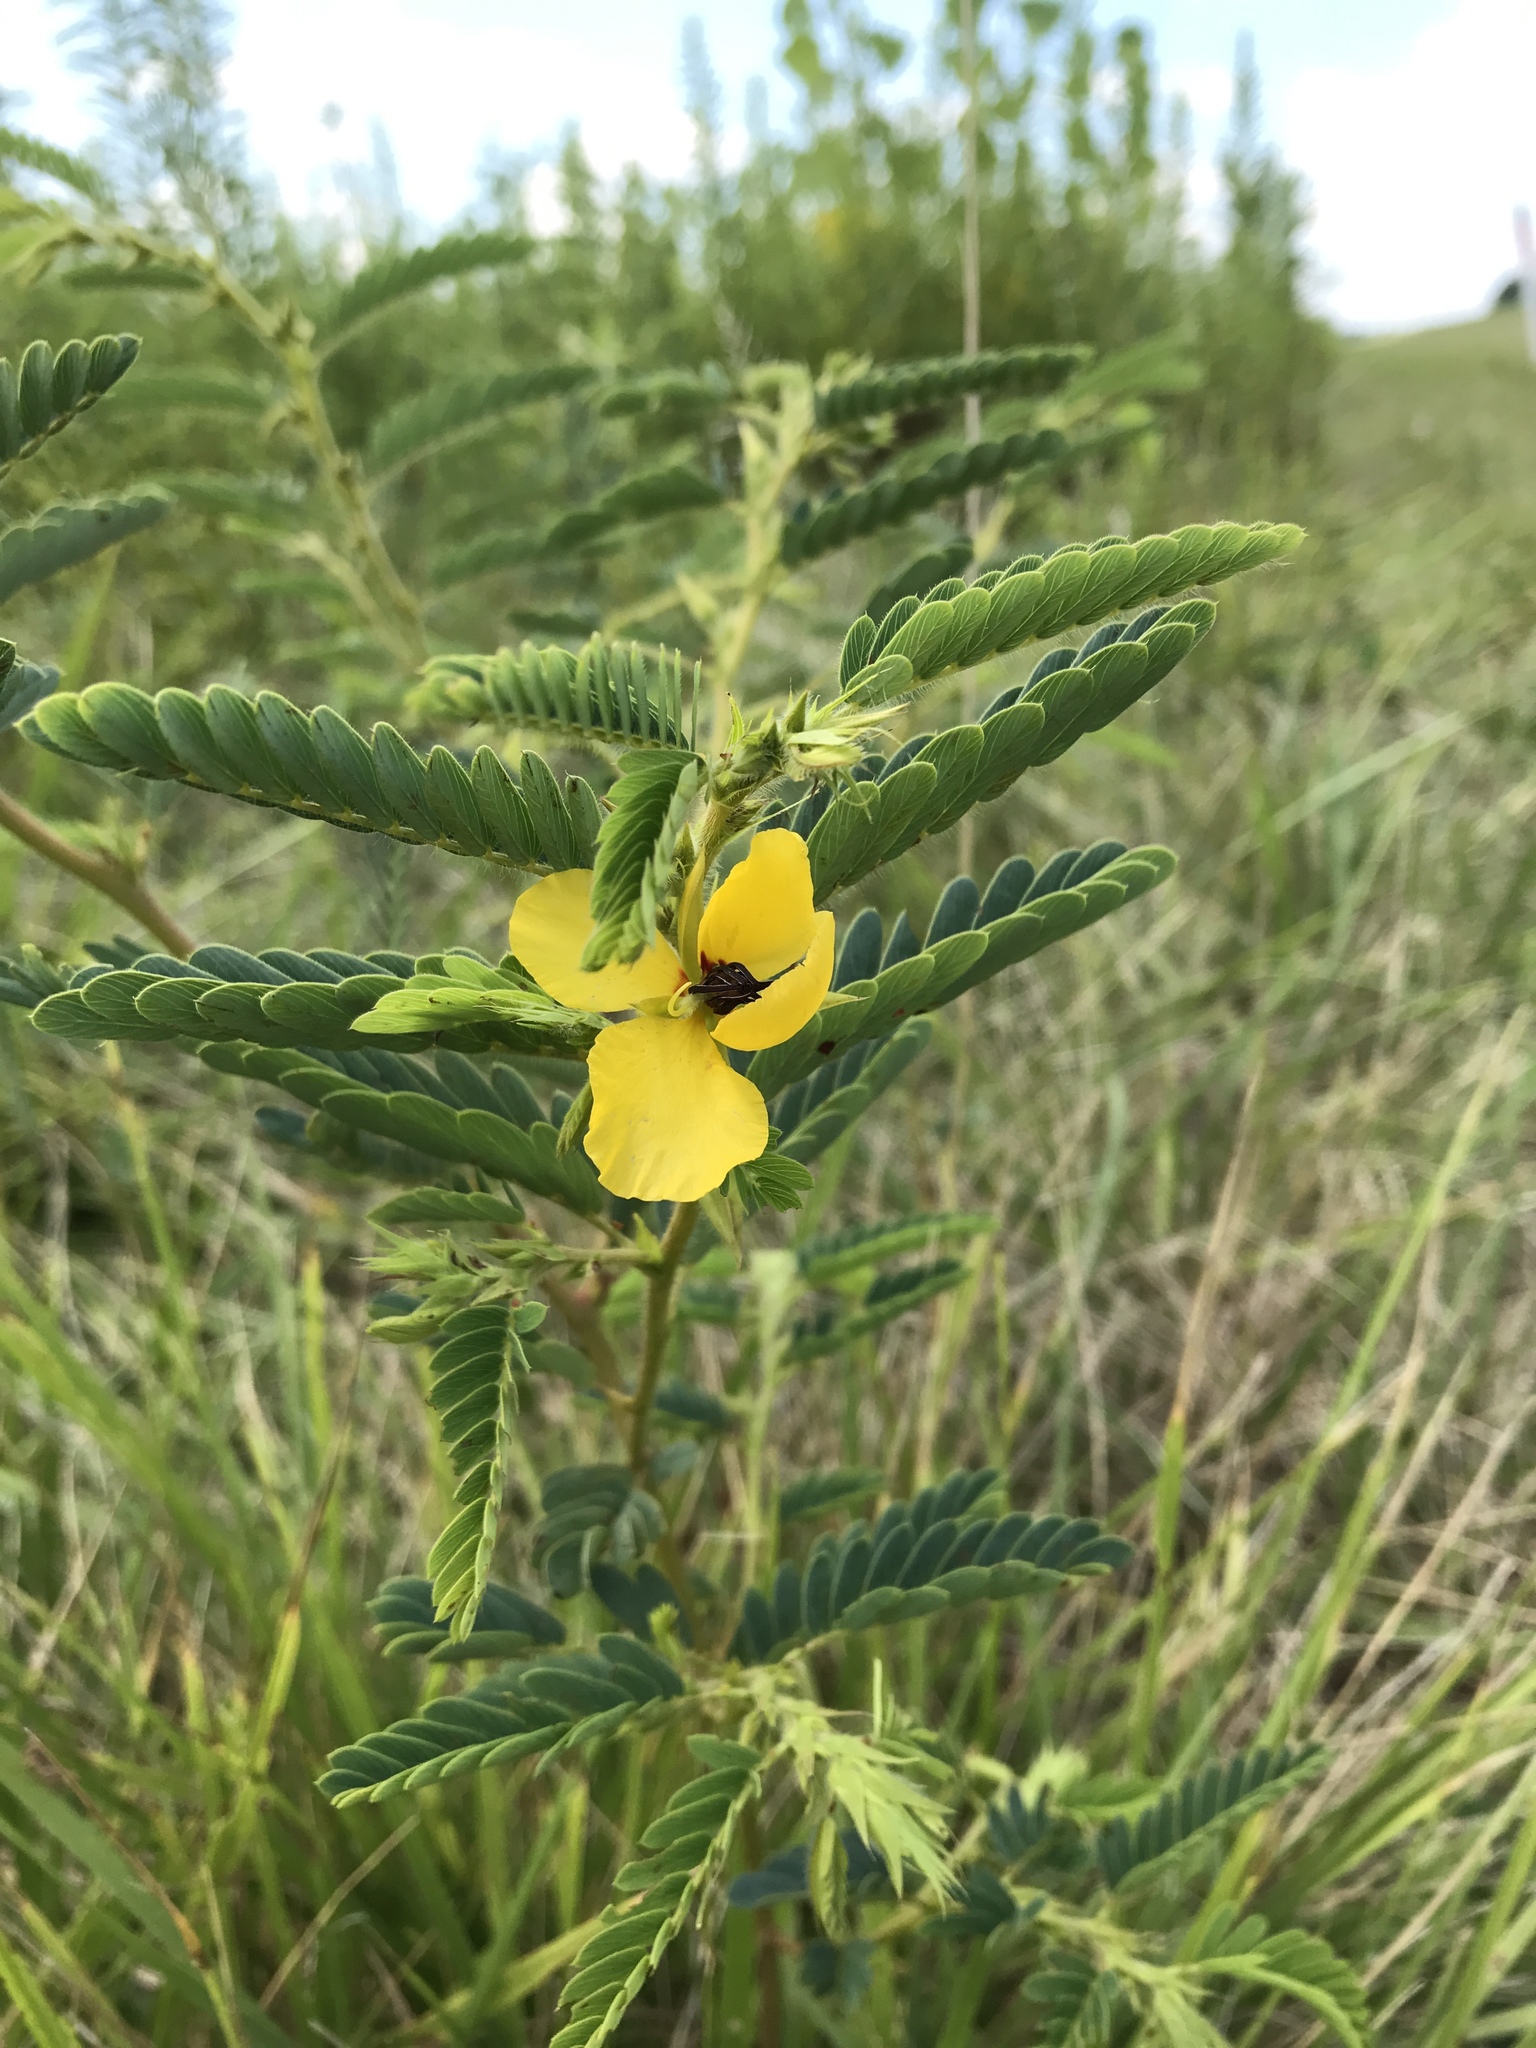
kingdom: Plantae
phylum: Tracheophyta
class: Magnoliopsida
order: Fabales
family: Fabaceae
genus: Chamaecrista
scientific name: Chamaecrista fasciculata
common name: Golden cassia
